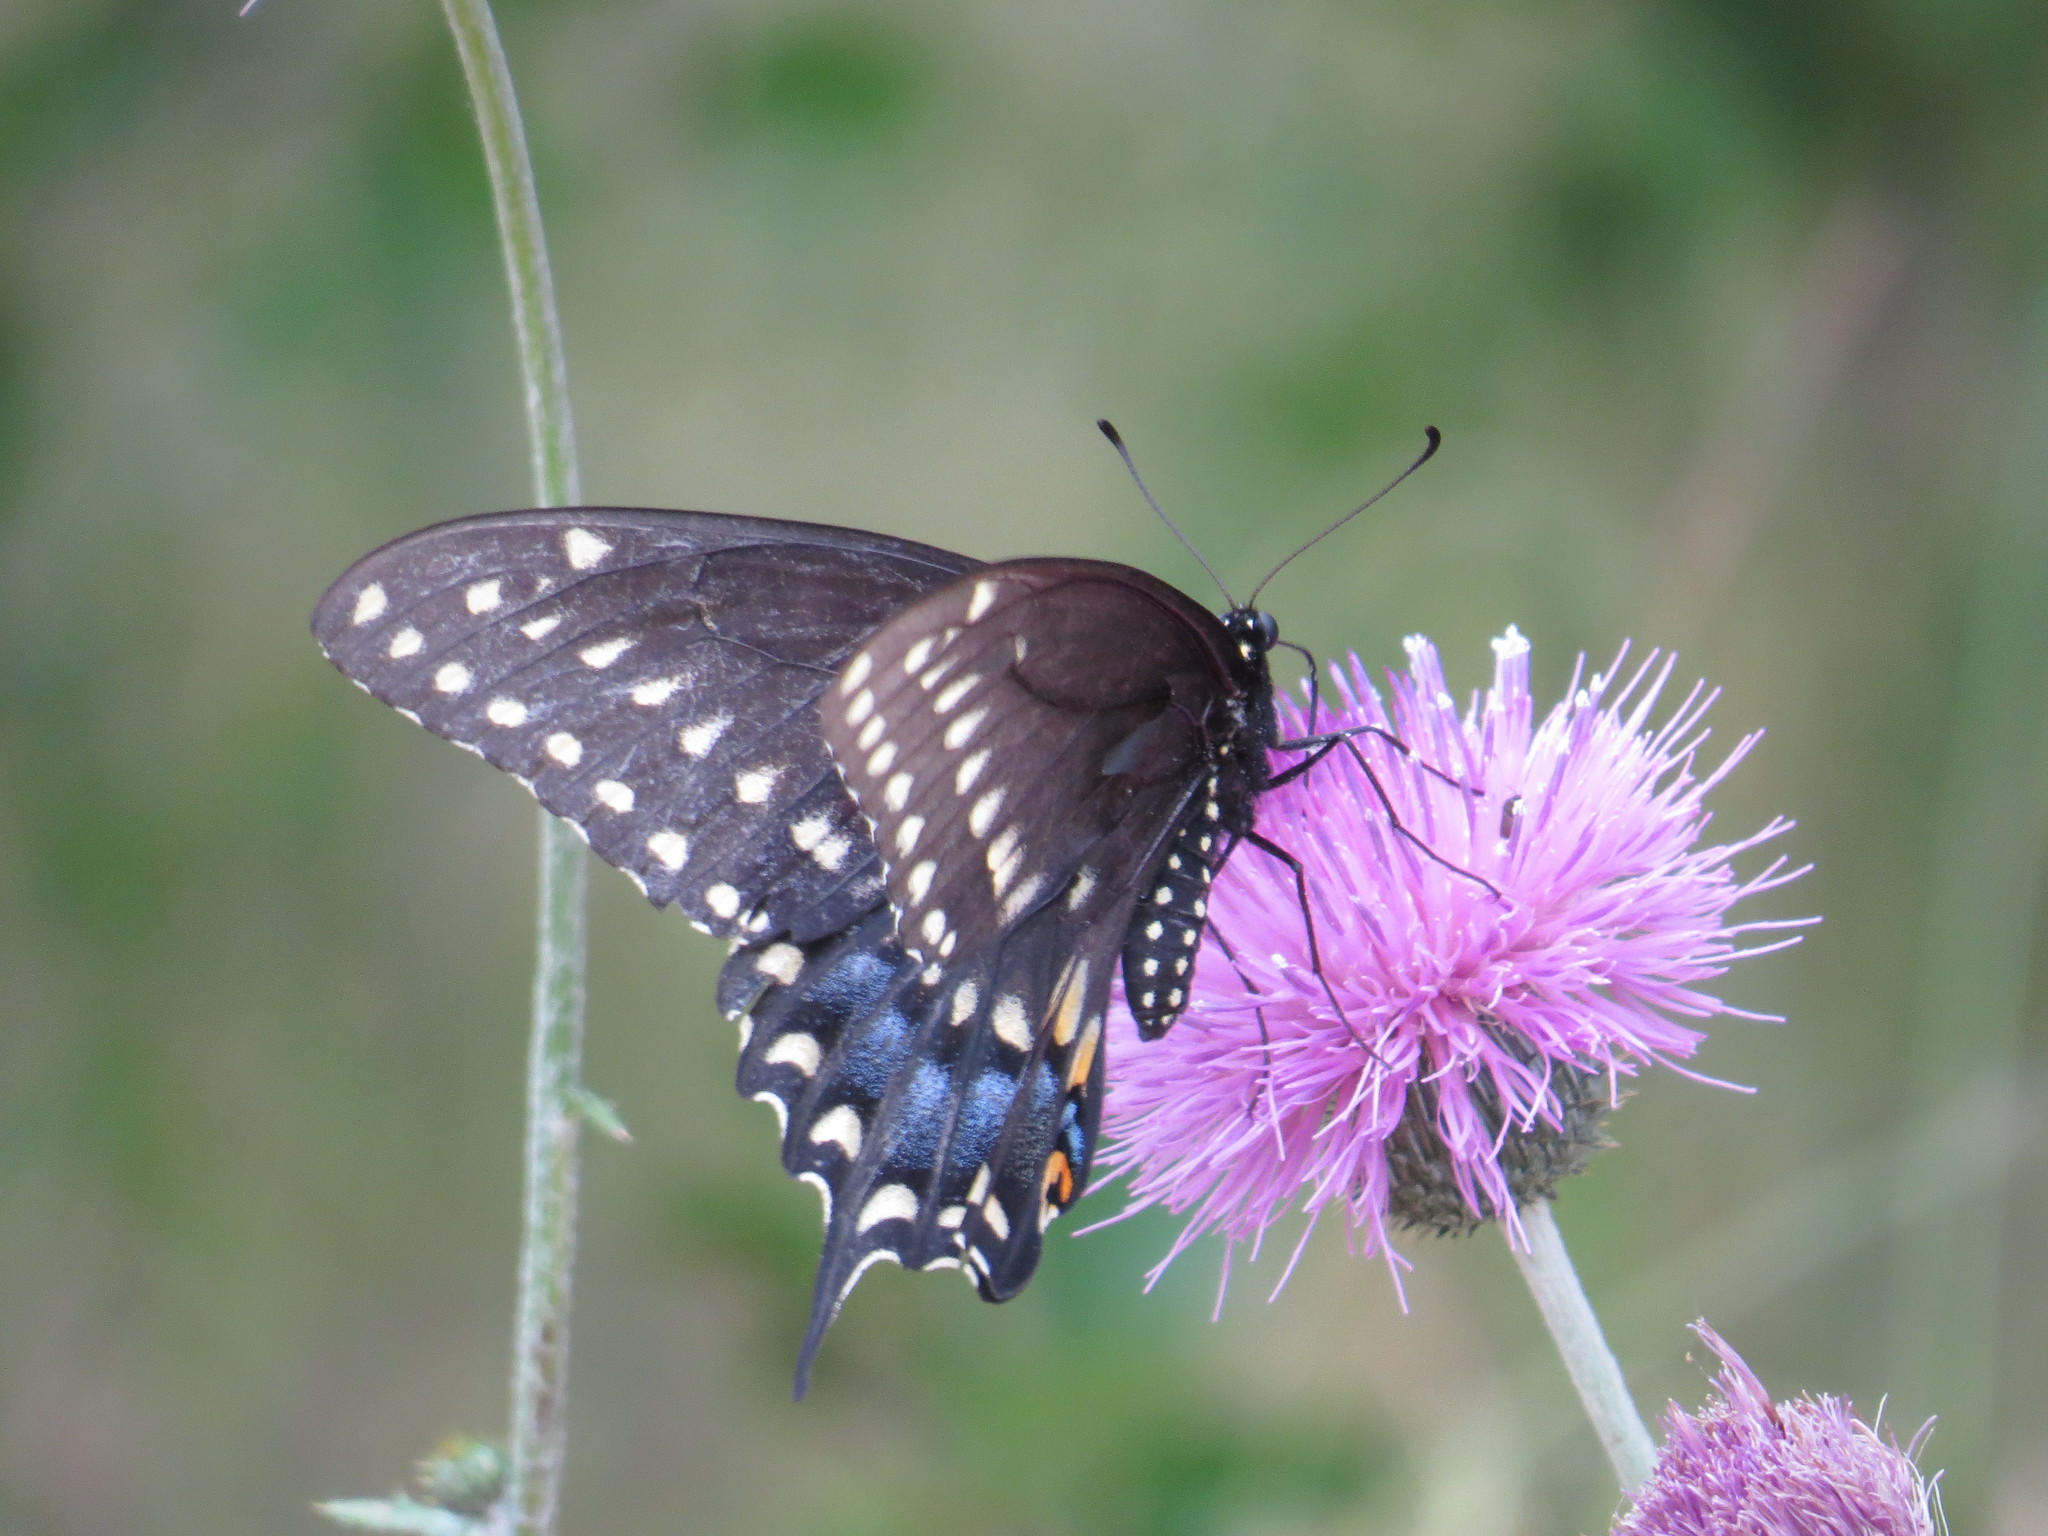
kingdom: Animalia
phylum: Arthropoda
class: Insecta
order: Lepidoptera
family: Papilionidae
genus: Papilio
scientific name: Papilio polyxenes
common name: Black swallowtail
